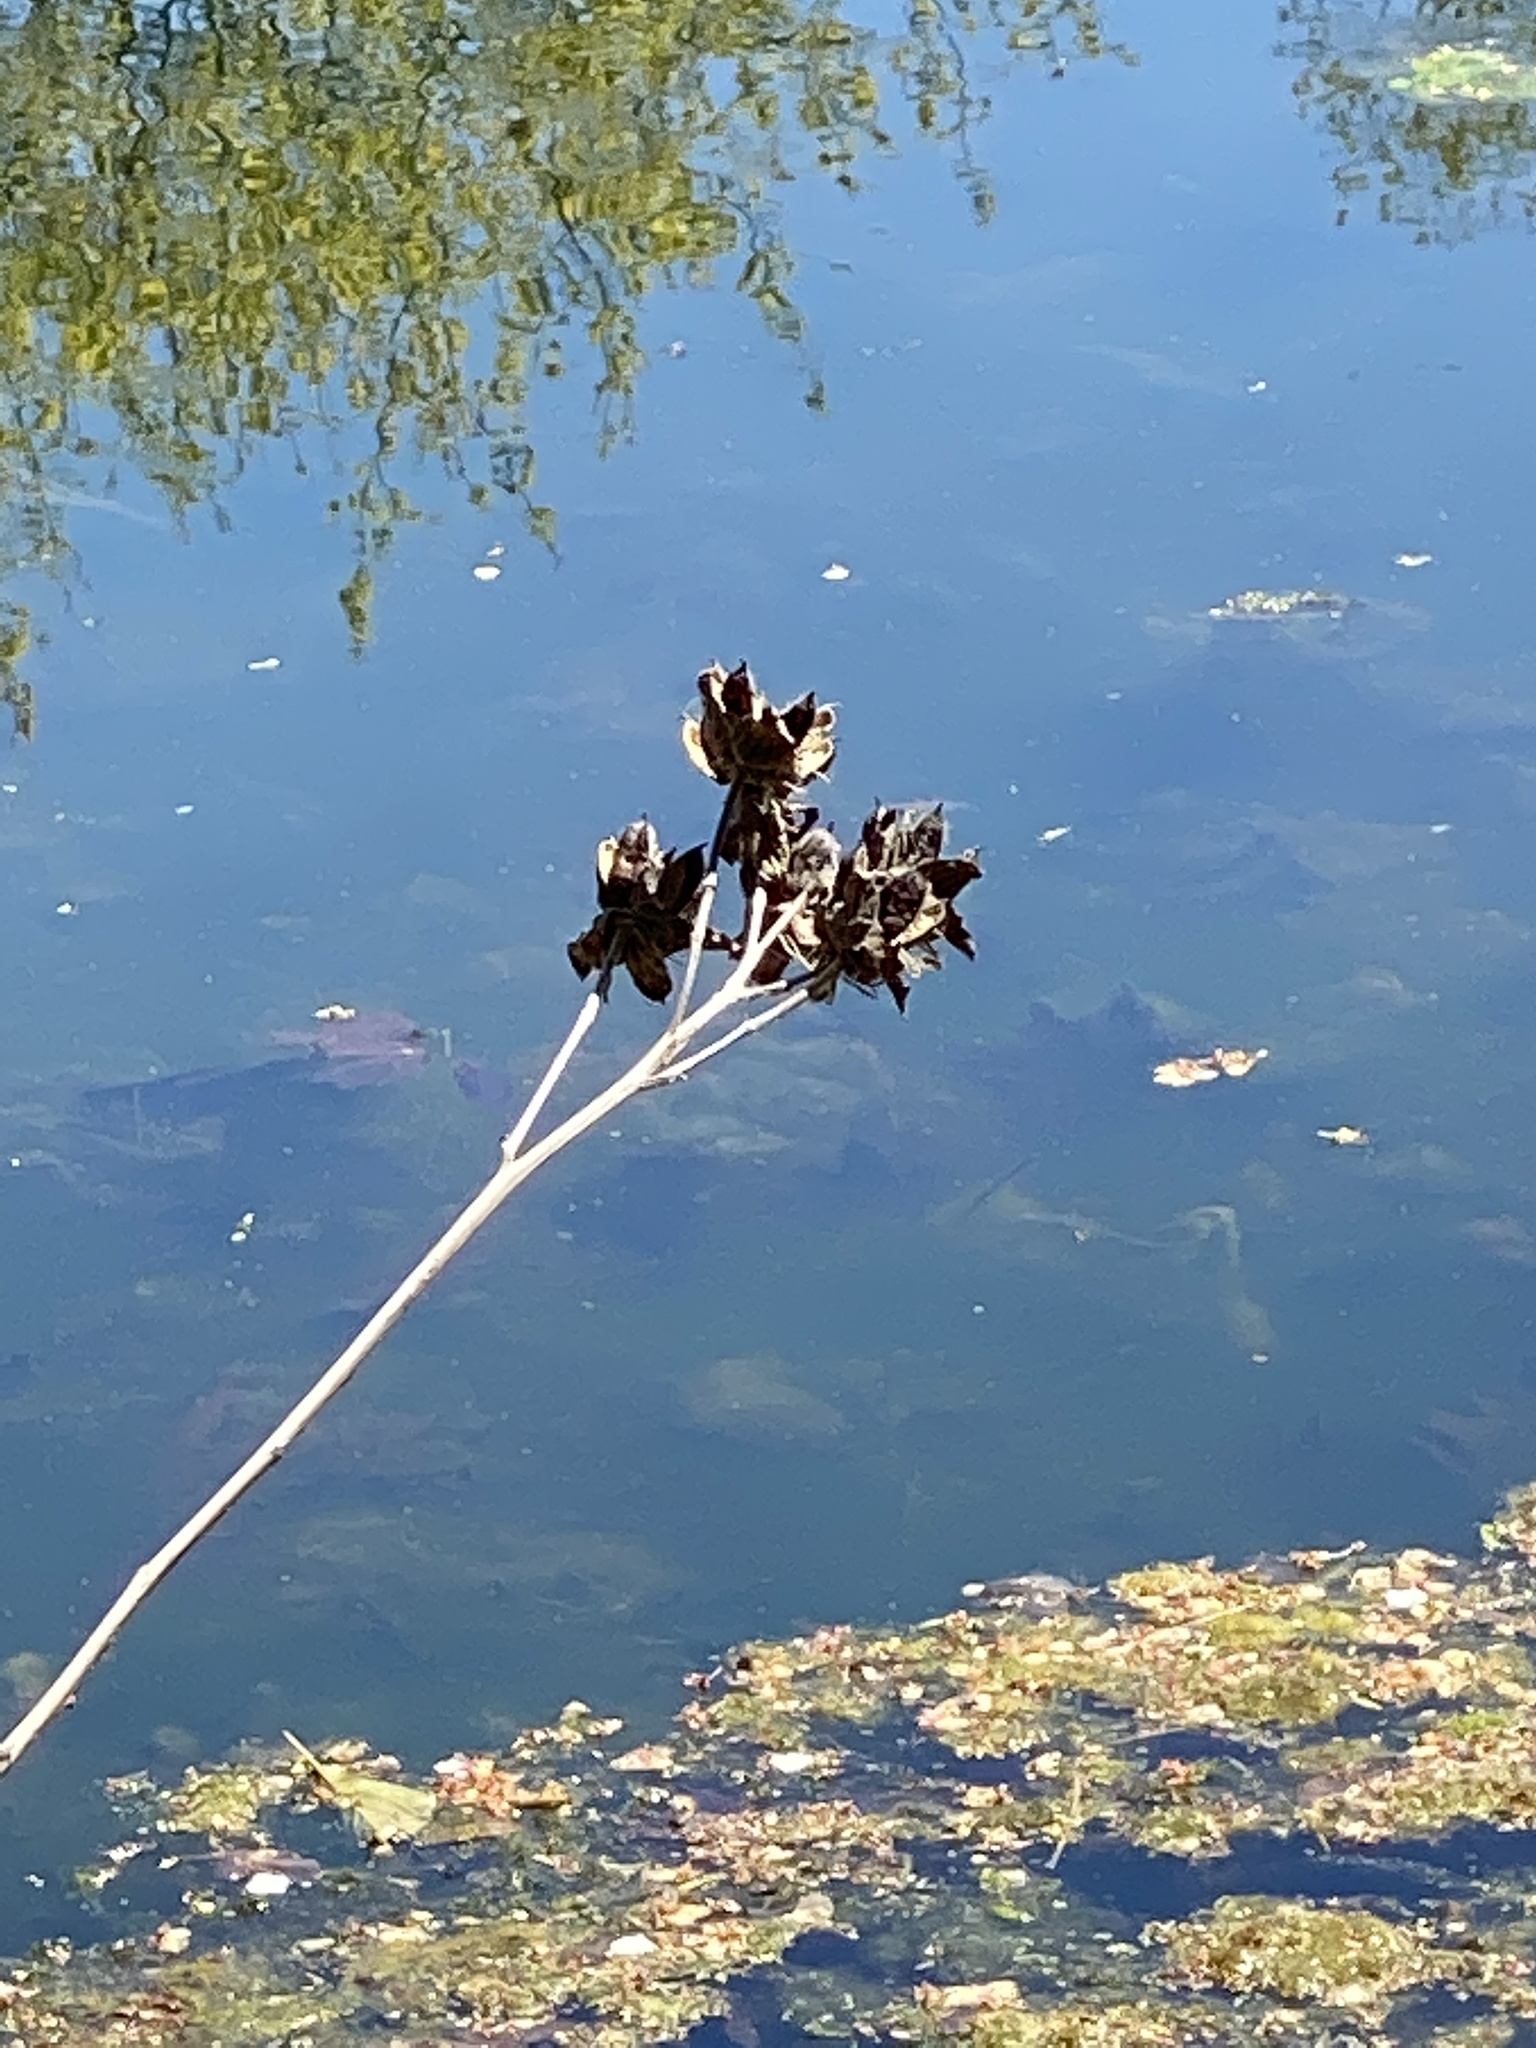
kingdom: Plantae
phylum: Tracheophyta
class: Magnoliopsida
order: Malvales
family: Malvaceae
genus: Hibiscus
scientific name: Hibiscus moscheutos
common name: Common rose-mallow
